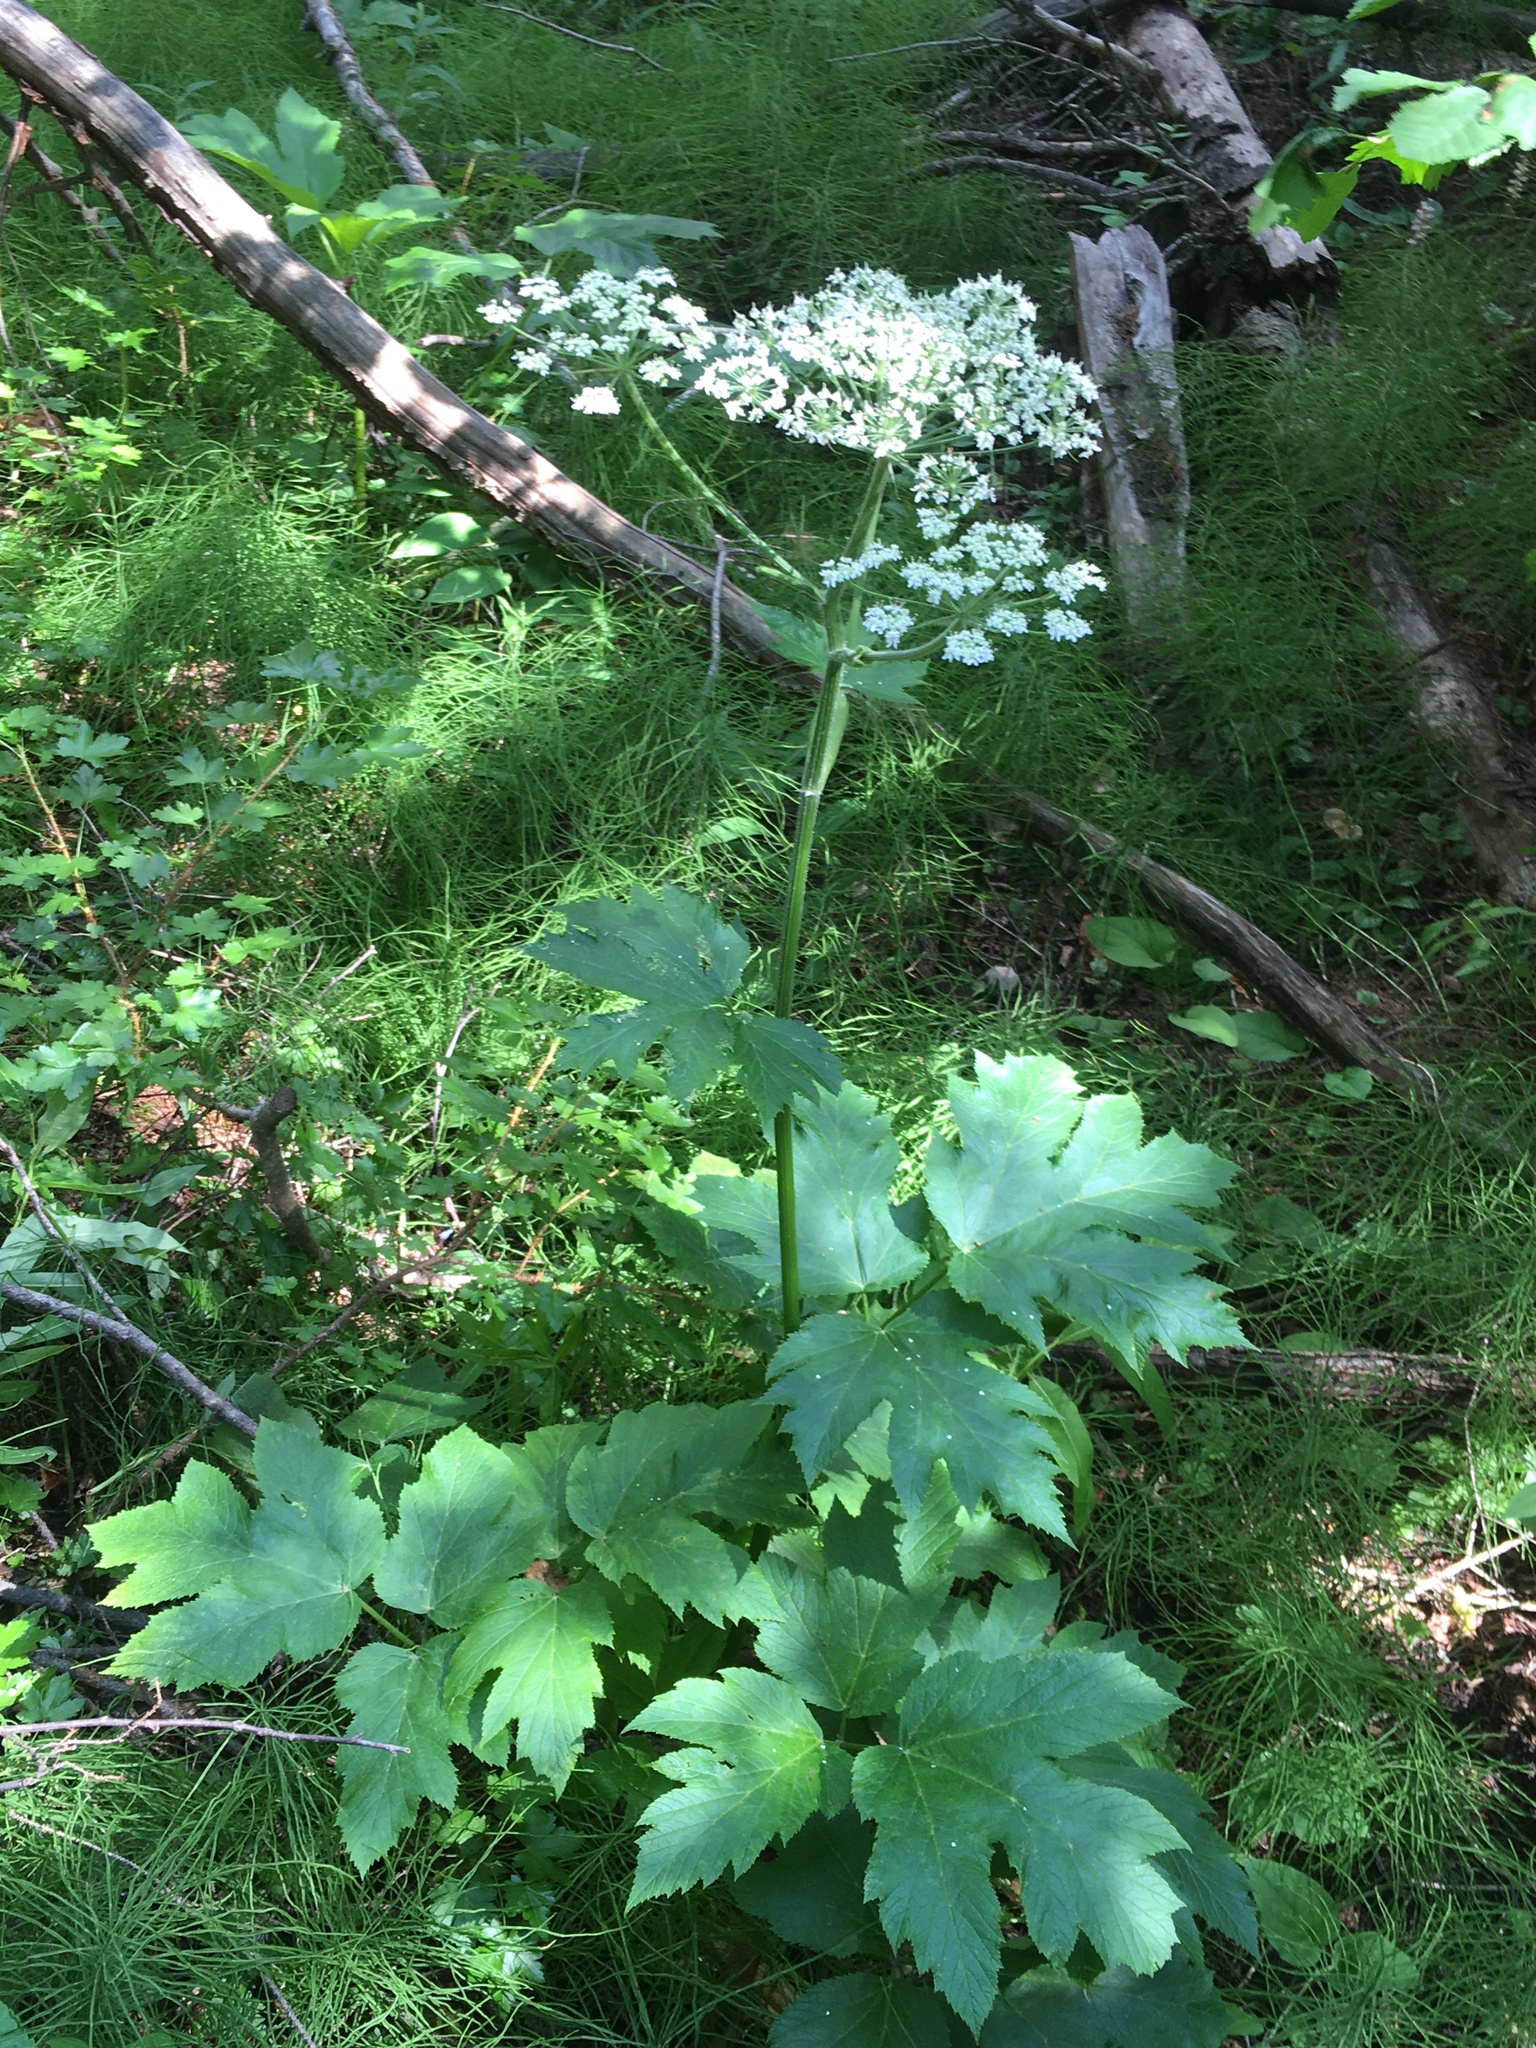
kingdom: Plantae
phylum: Tracheophyta
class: Magnoliopsida
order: Apiales
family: Apiaceae
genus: Heracleum
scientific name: Heracleum maximum
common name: American cow parsnip
